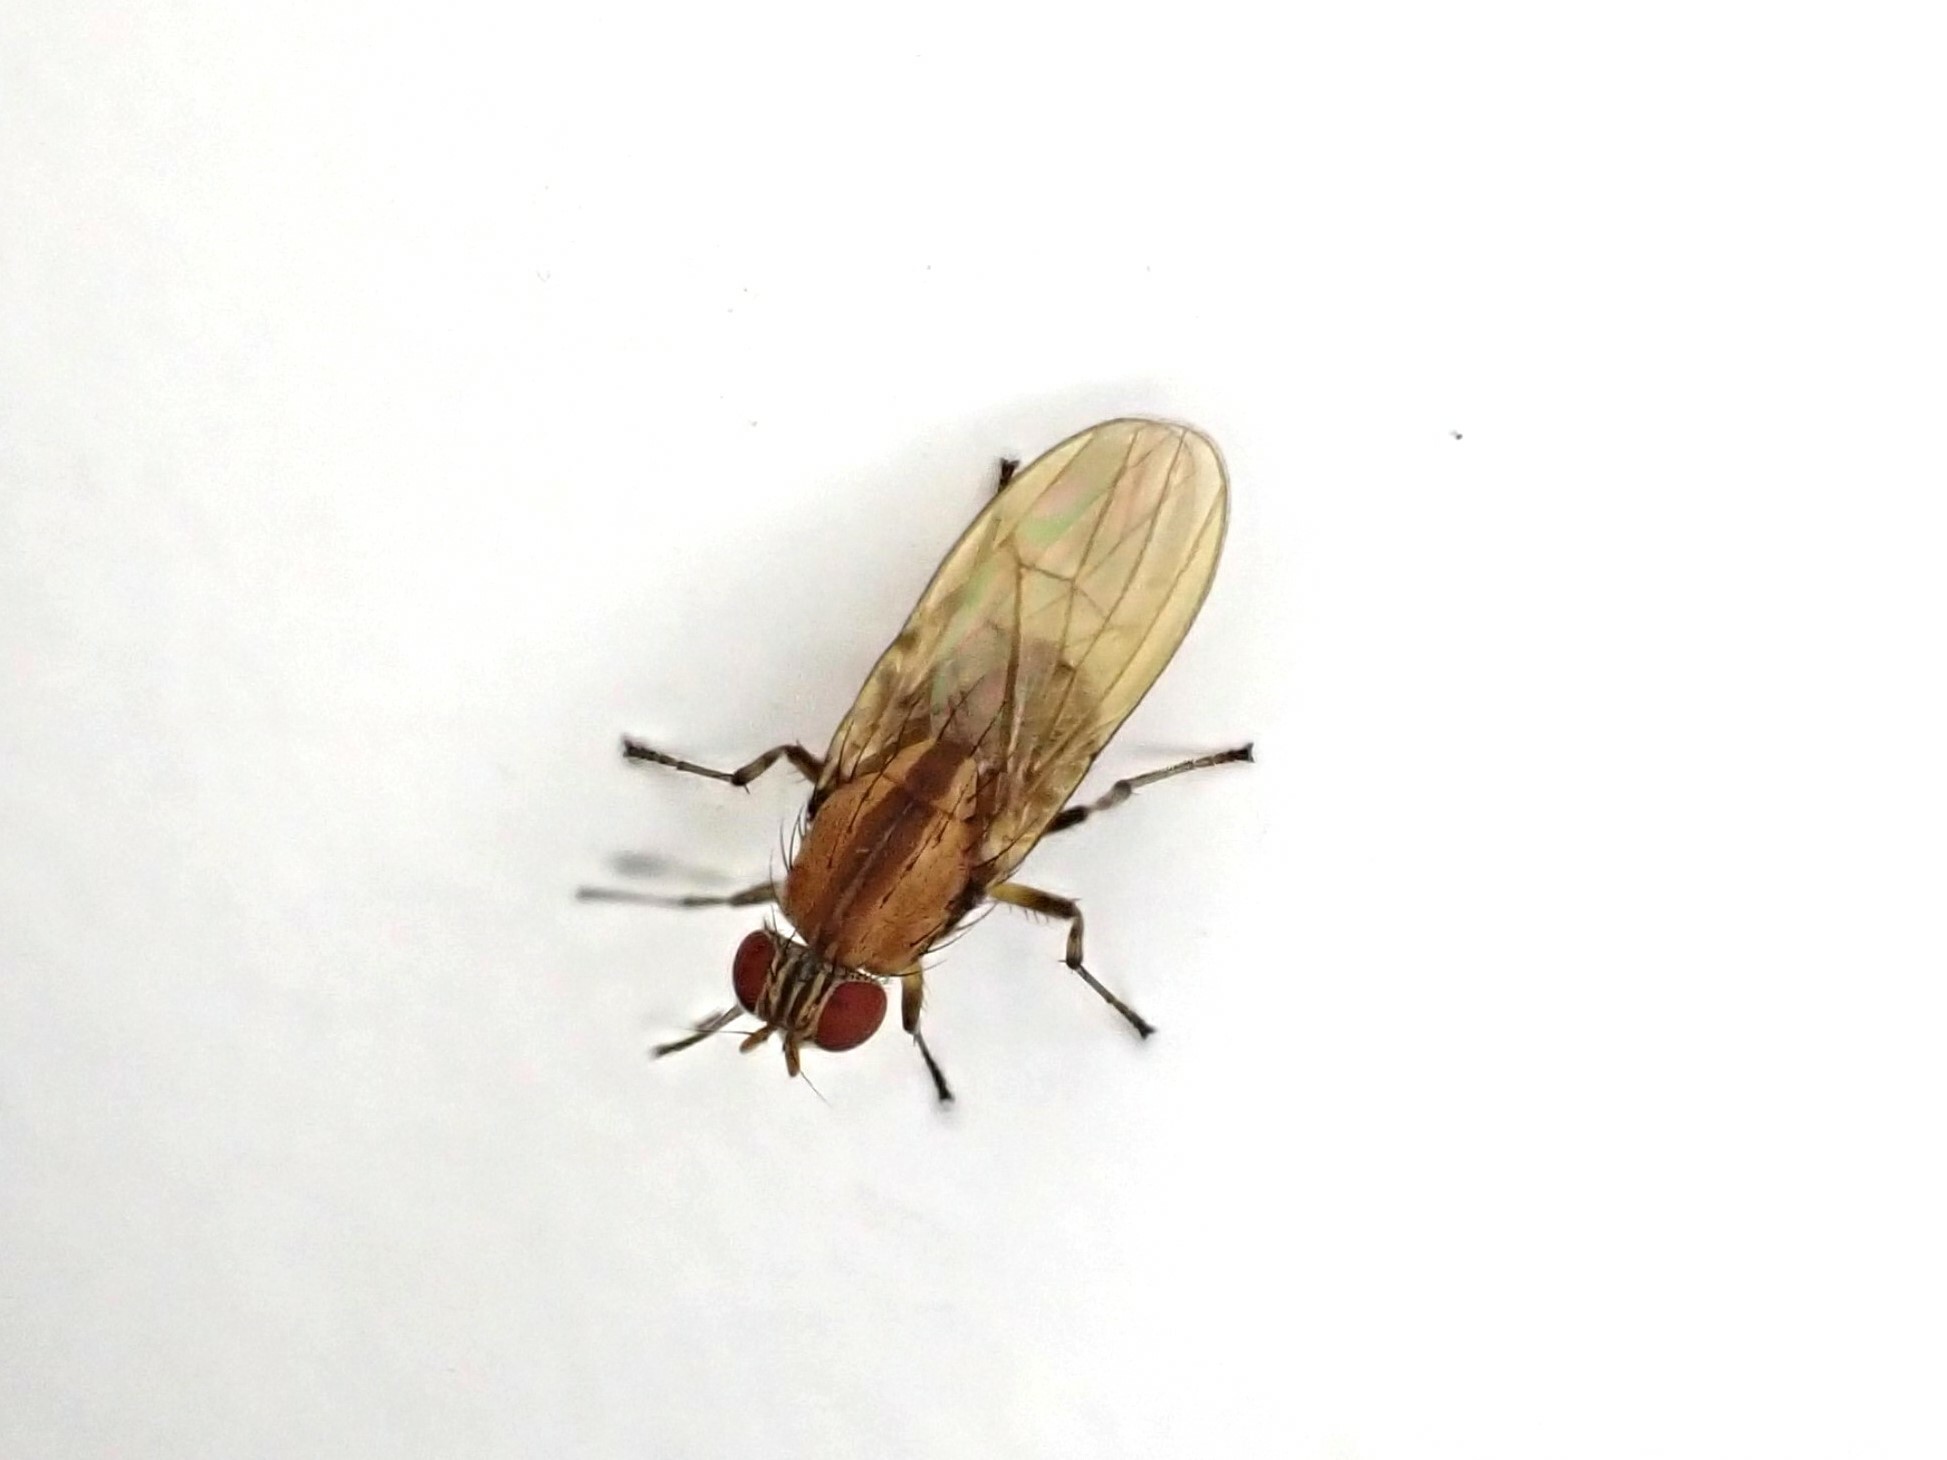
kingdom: Animalia
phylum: Arthropoda
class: Insecta
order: Diptera
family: Lauxaniidae
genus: Sapromyza
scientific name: Sapromyza neozelandica
